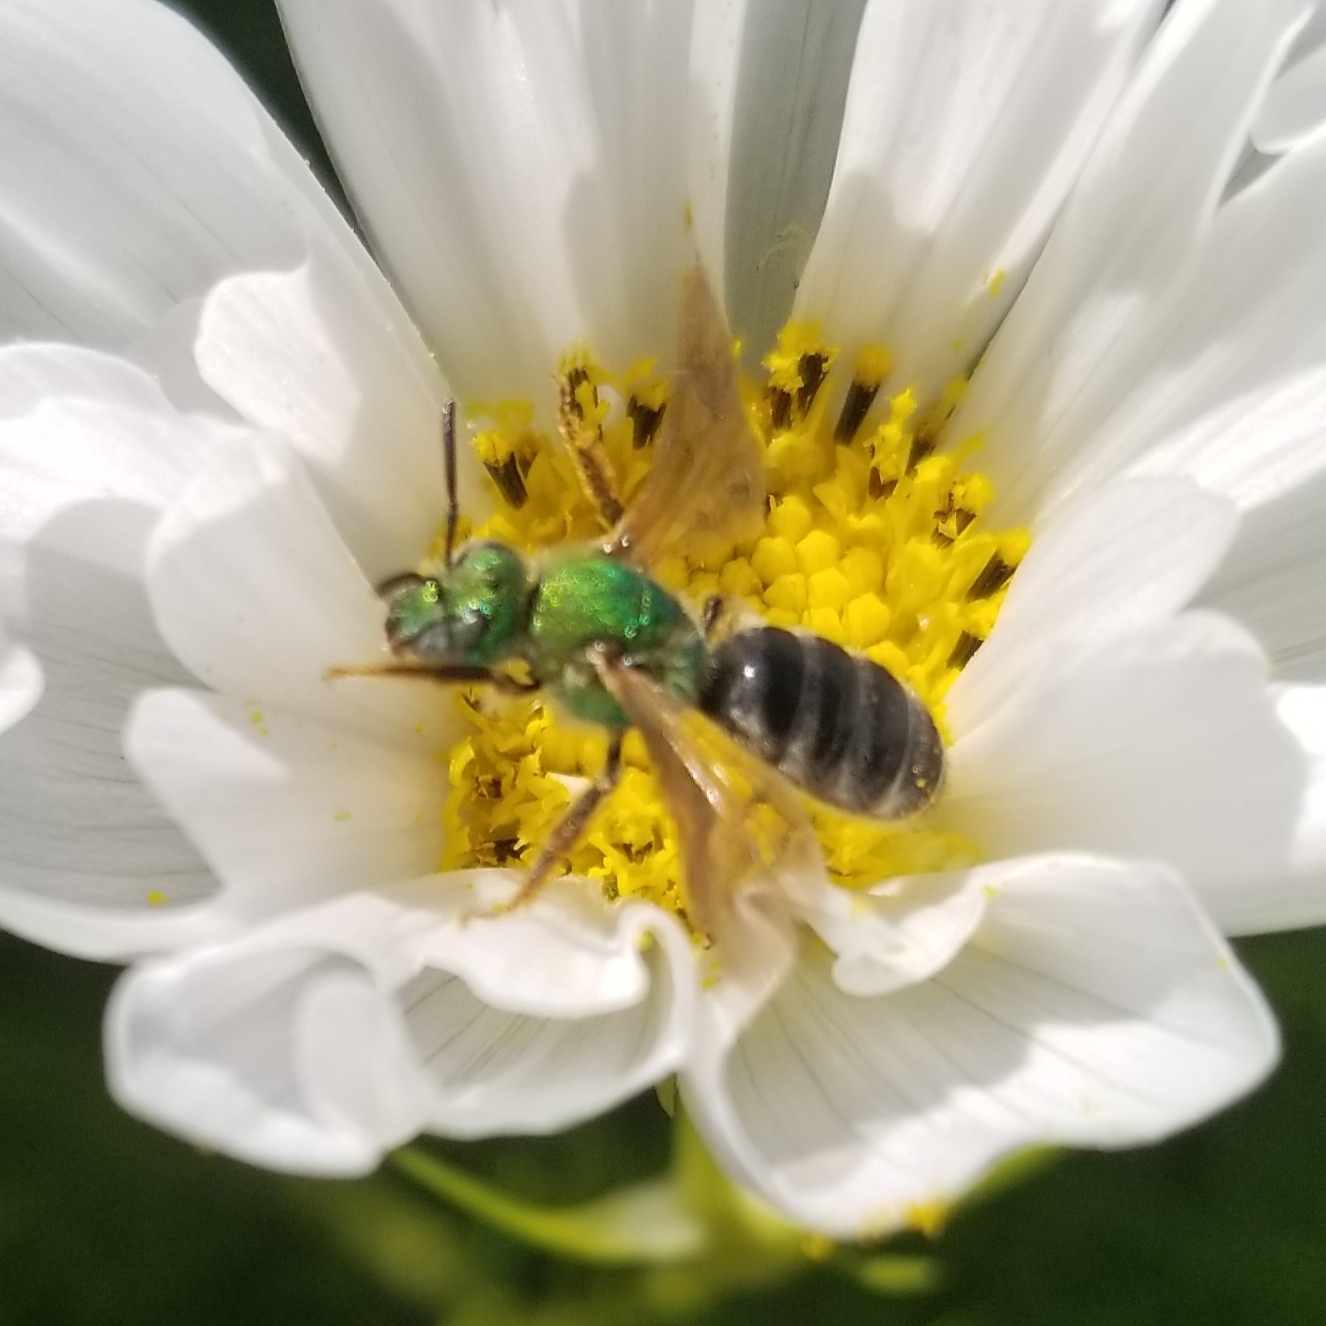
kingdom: Animalia
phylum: Arthropoda
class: Insecta
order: Hymenoptera
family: Halictidae
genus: Agapostemon
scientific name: Agapostemon virescens
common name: Bicolored striped sweat bee
